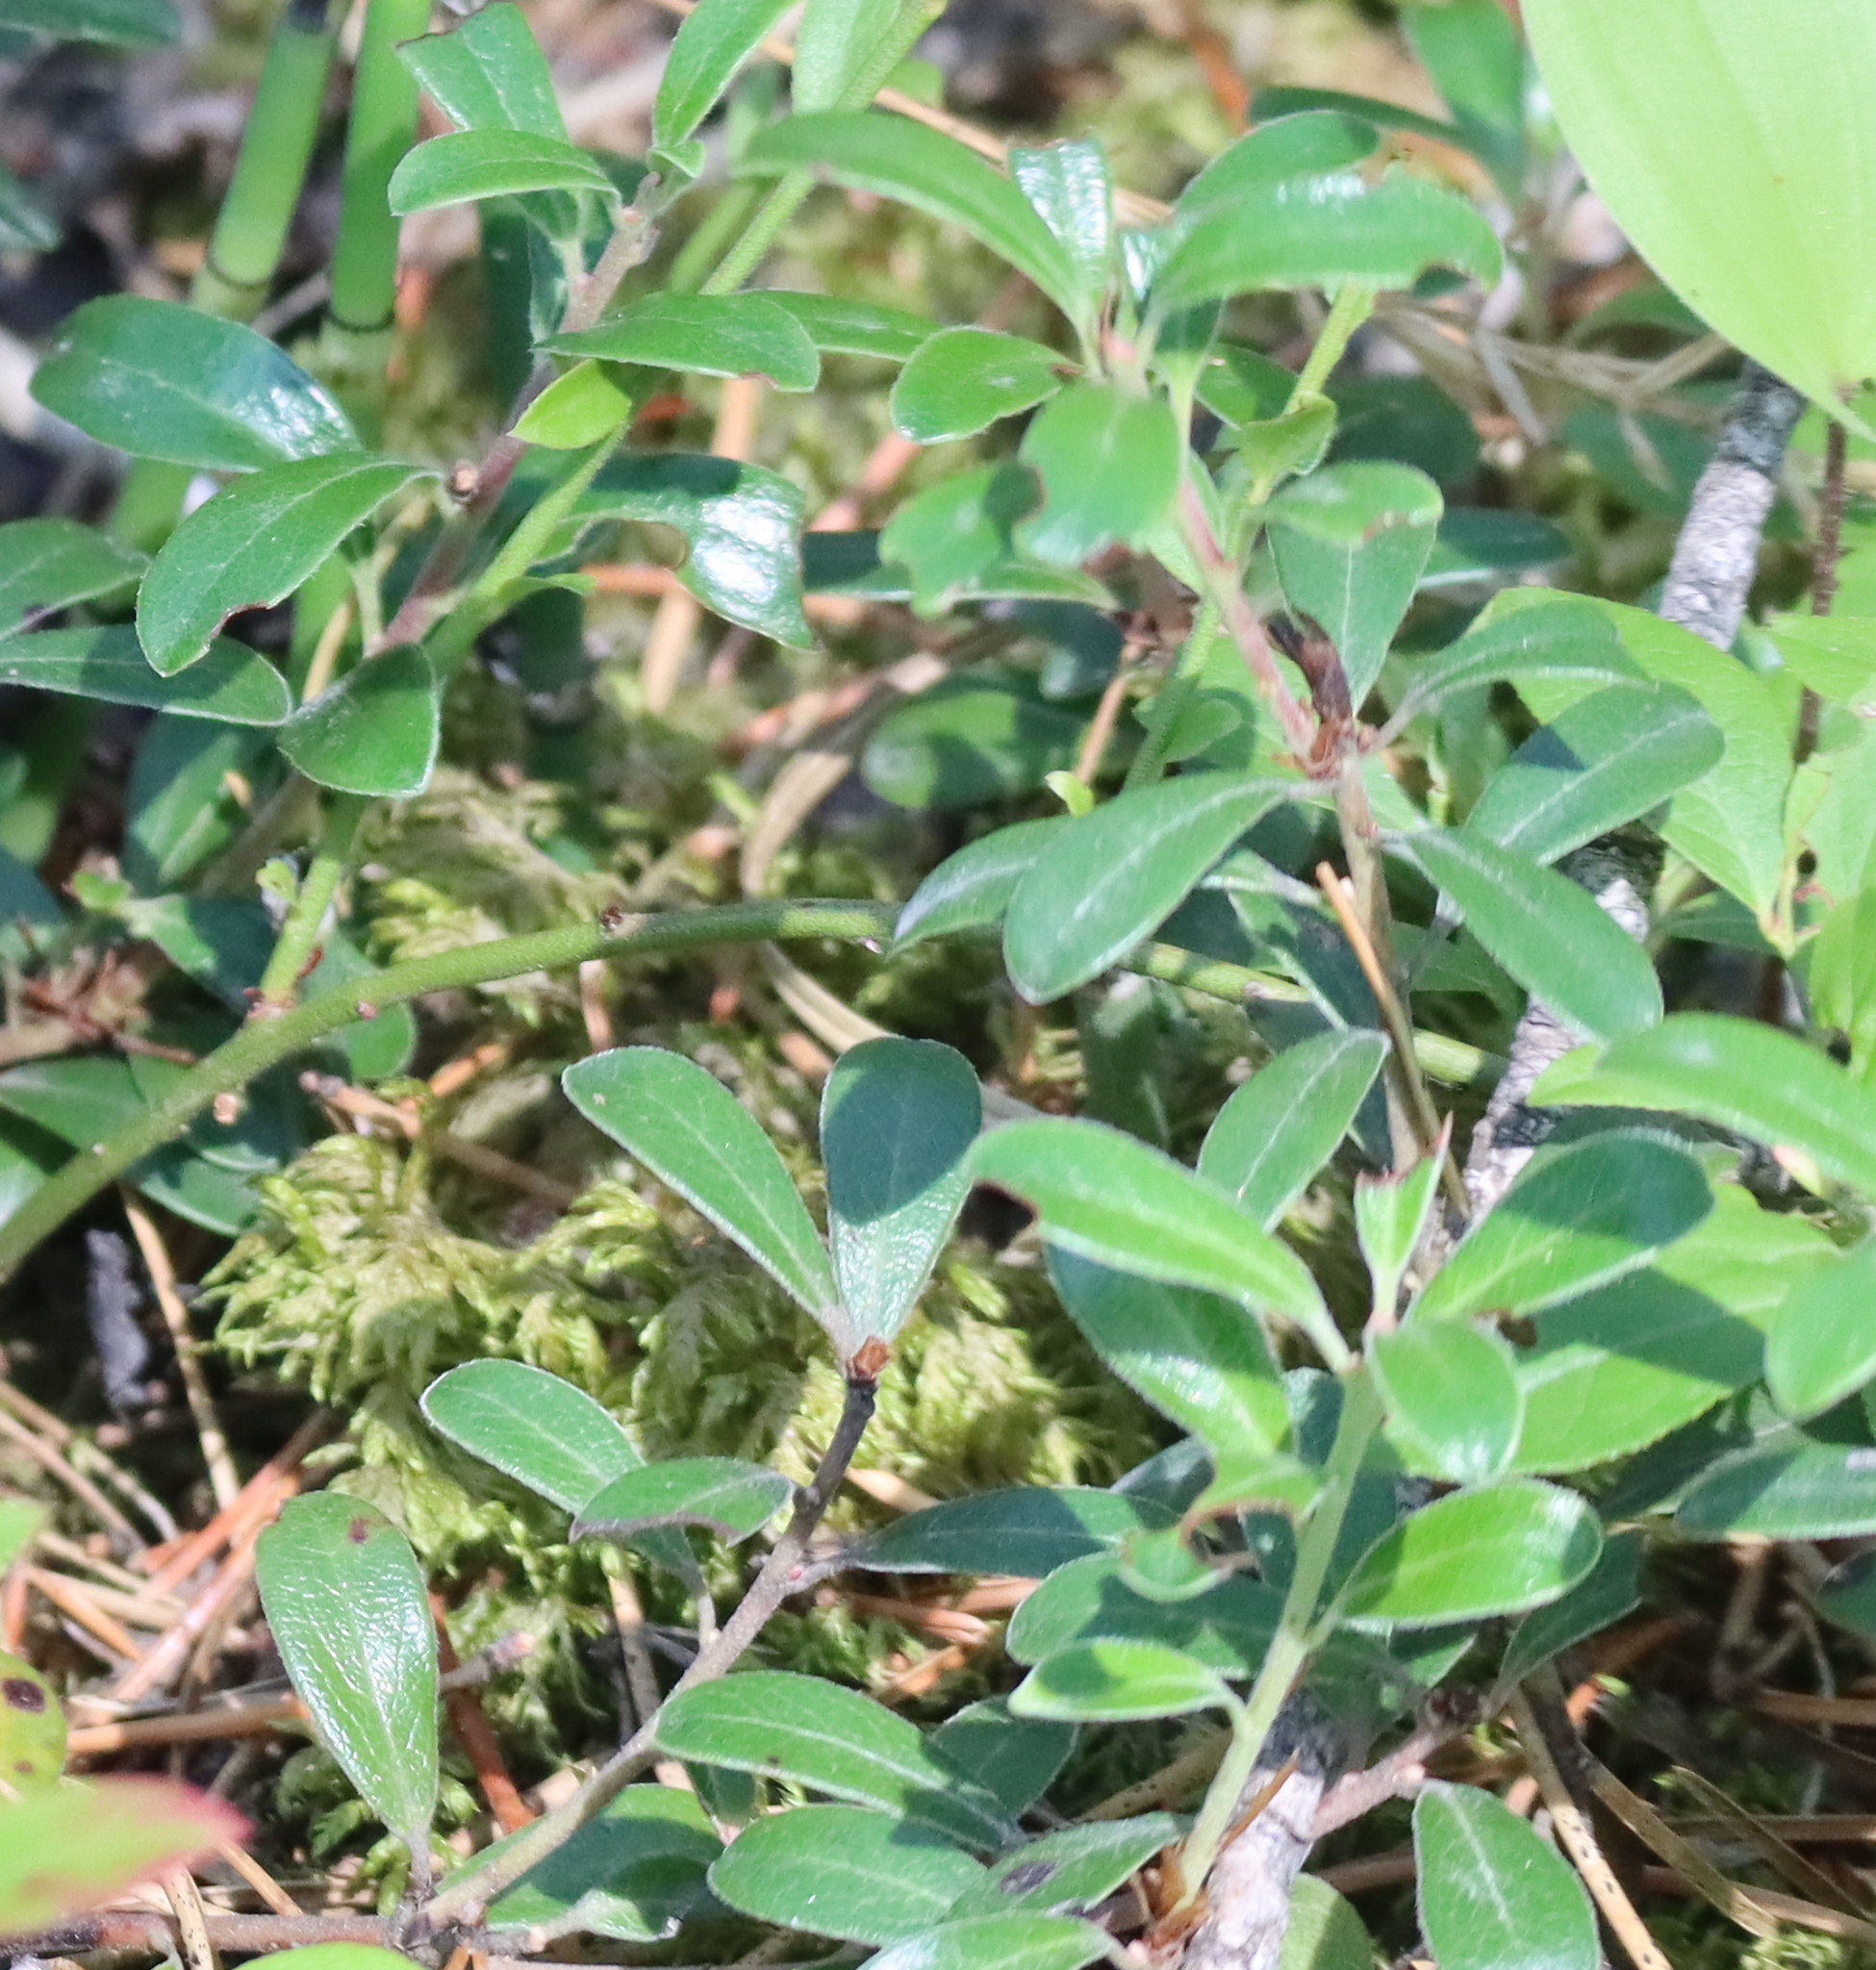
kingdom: Plantae
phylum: Tracheophyta
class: Magnoliopsida
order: Ericales
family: Ericaceae
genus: Arctostaphylos
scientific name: Arctostaphylos uva-ursi
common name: Bearberry
